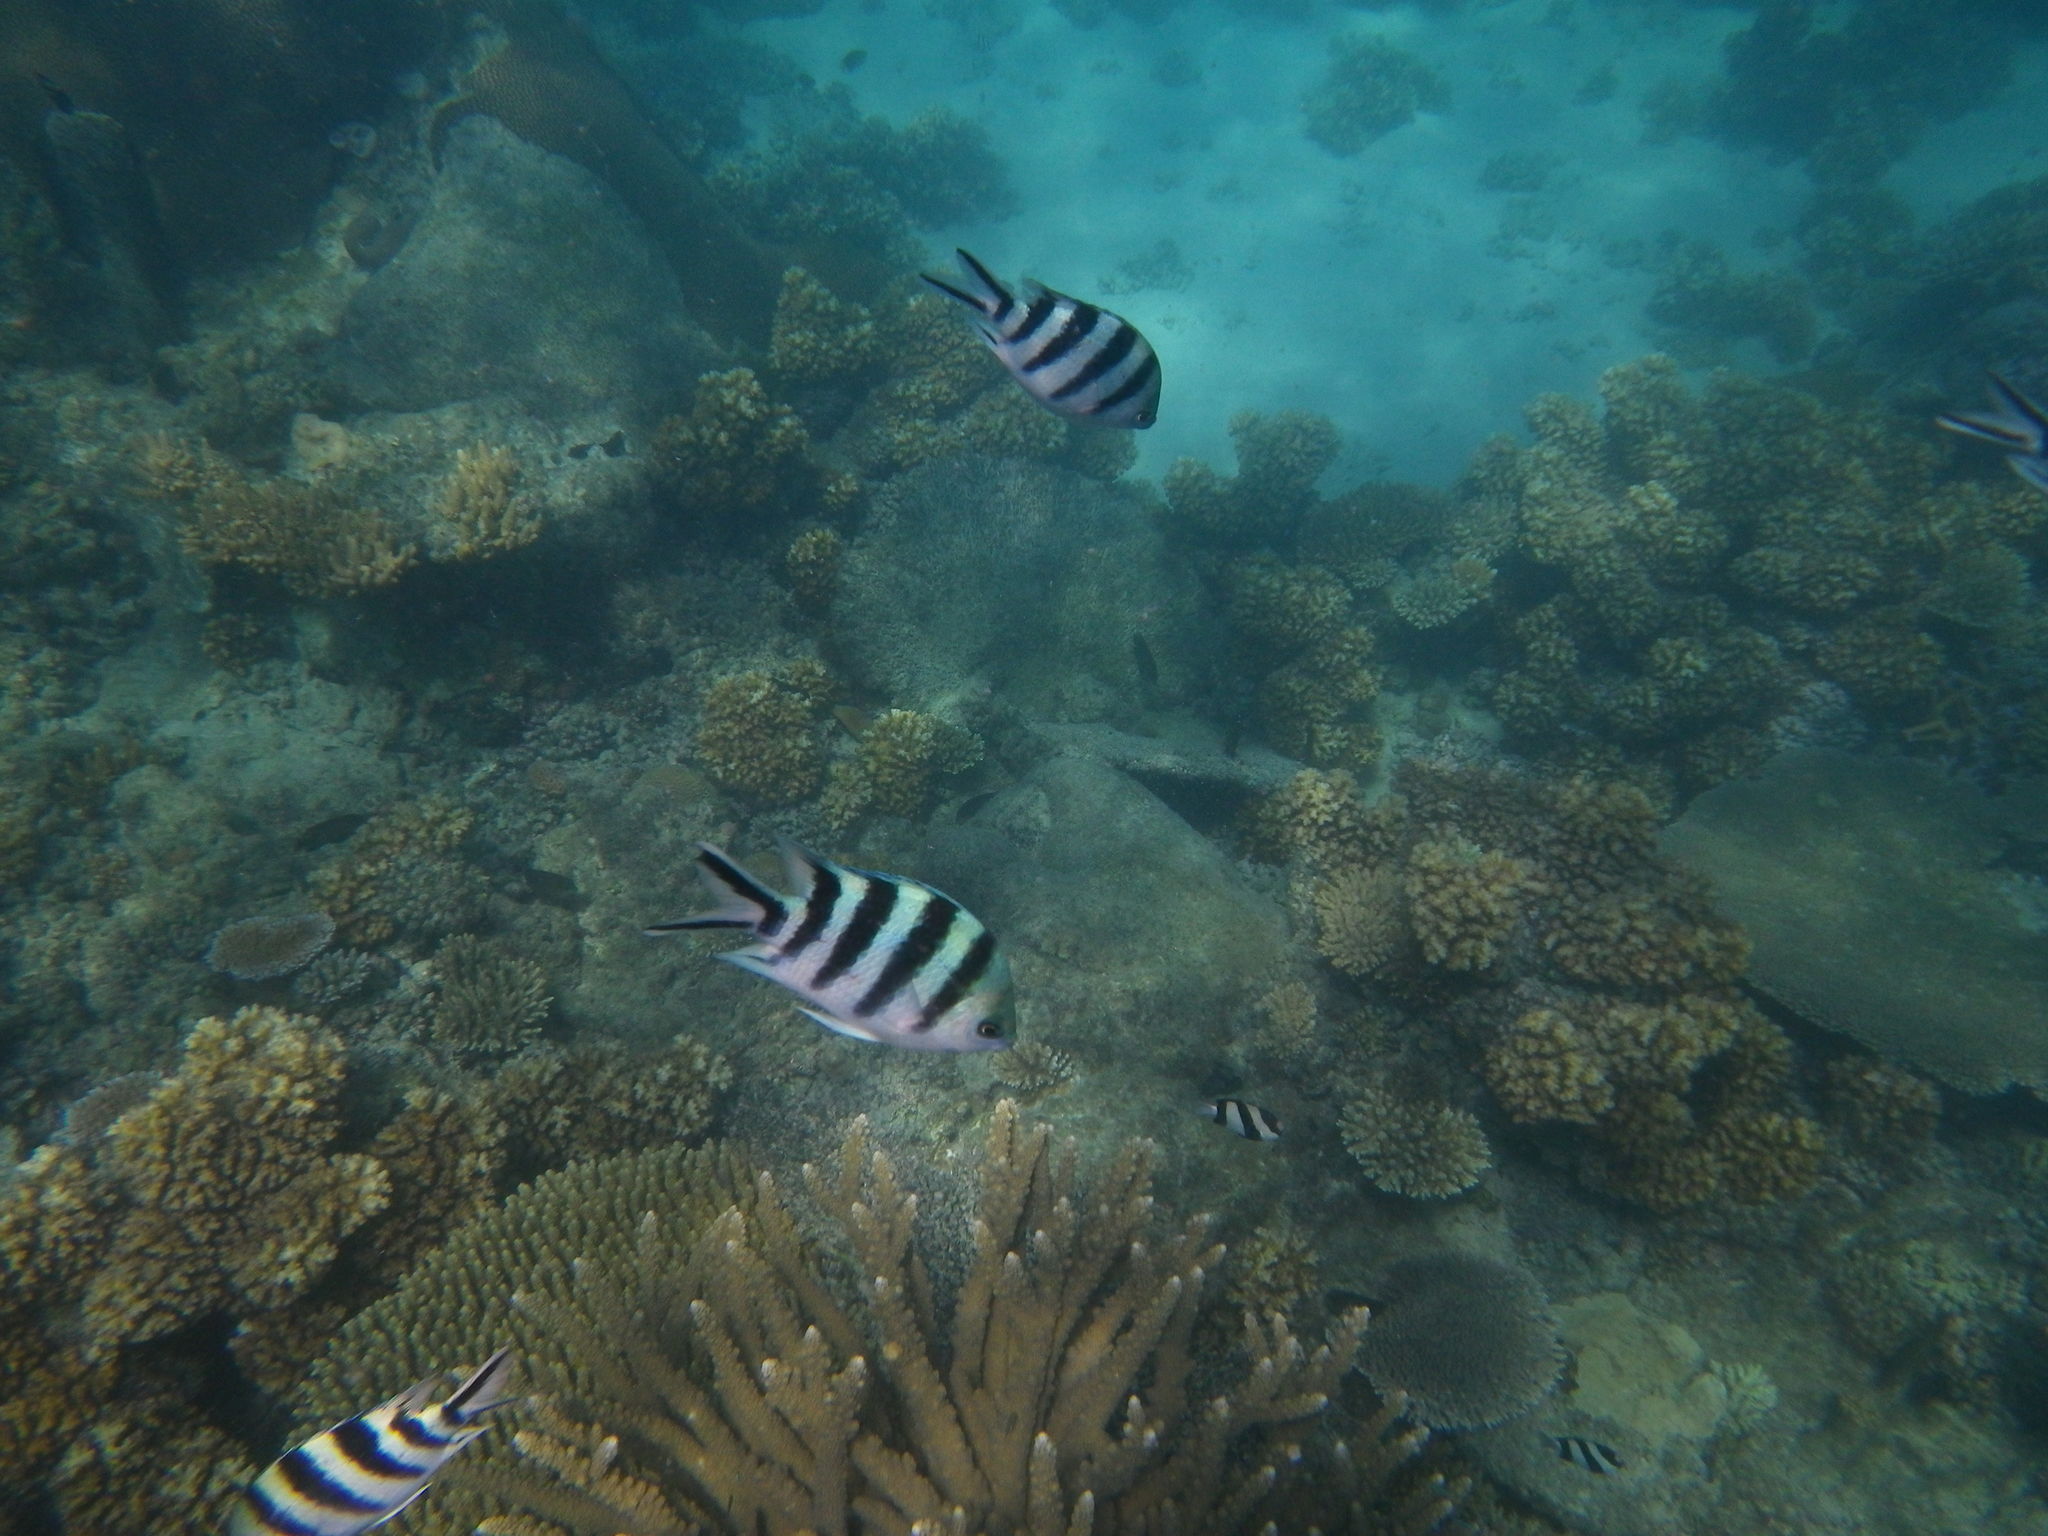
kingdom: Animalia
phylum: Chordata
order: Perciformes
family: Pomacentridae
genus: Abudefduf
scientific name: Abudefduf sexfasciatus
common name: Scissortail sergeant
